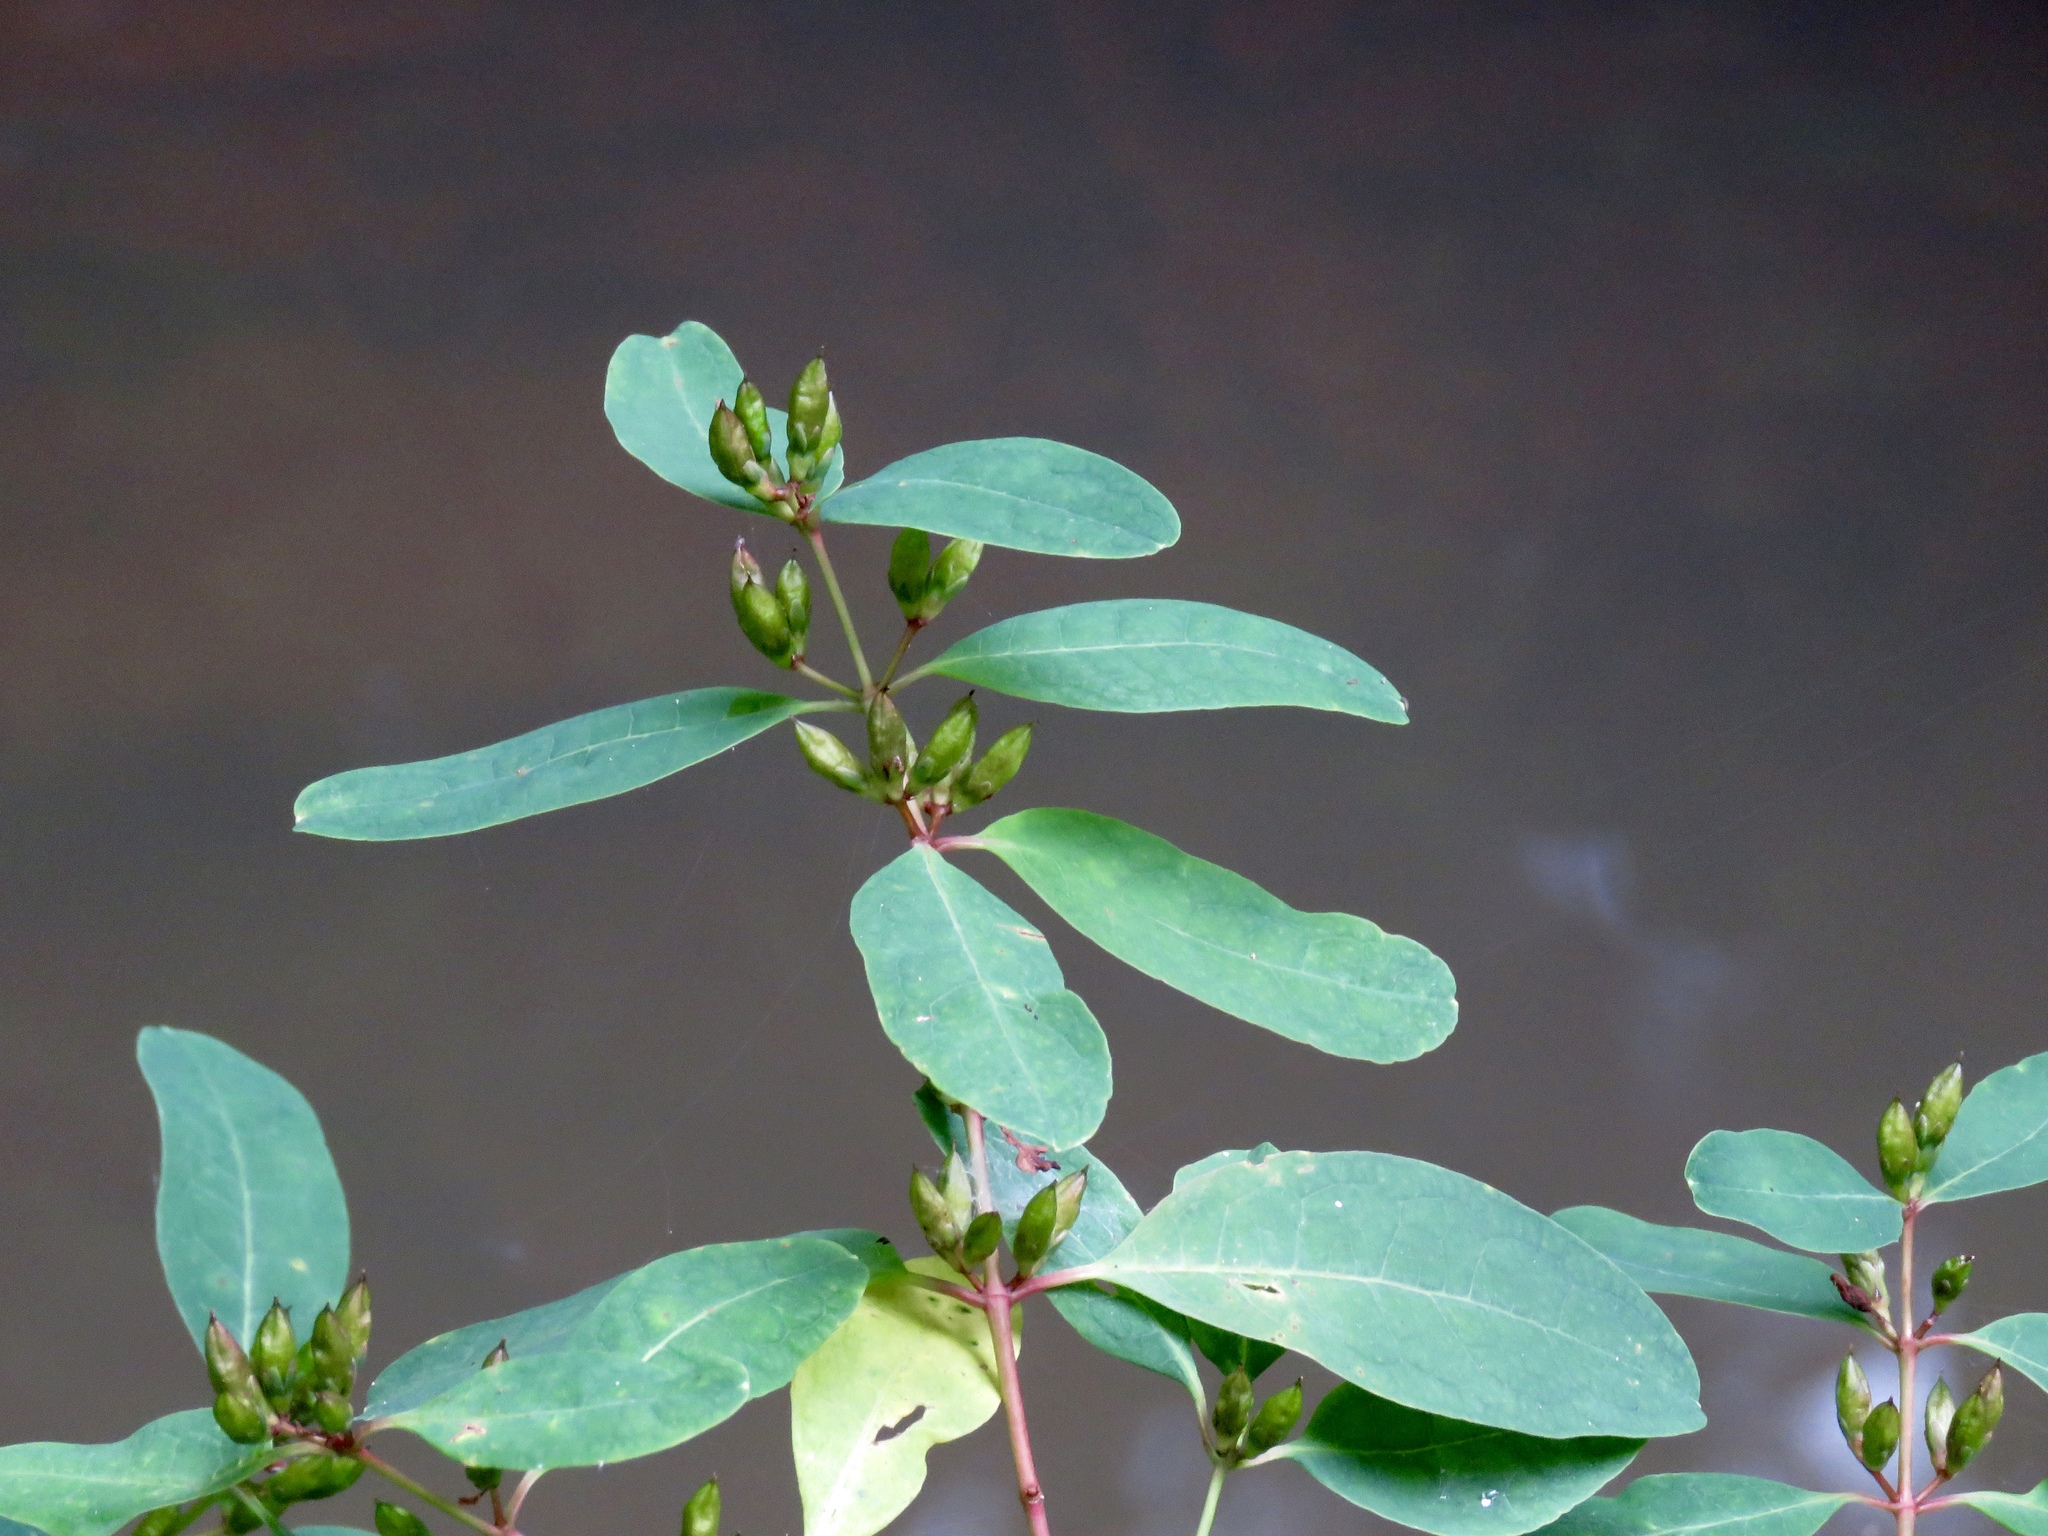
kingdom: Plantae
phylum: Tracheophyta
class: Magnoliopsida
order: Malpighiales
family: Hypericaceae
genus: Triadenum
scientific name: Triadenum walteri
